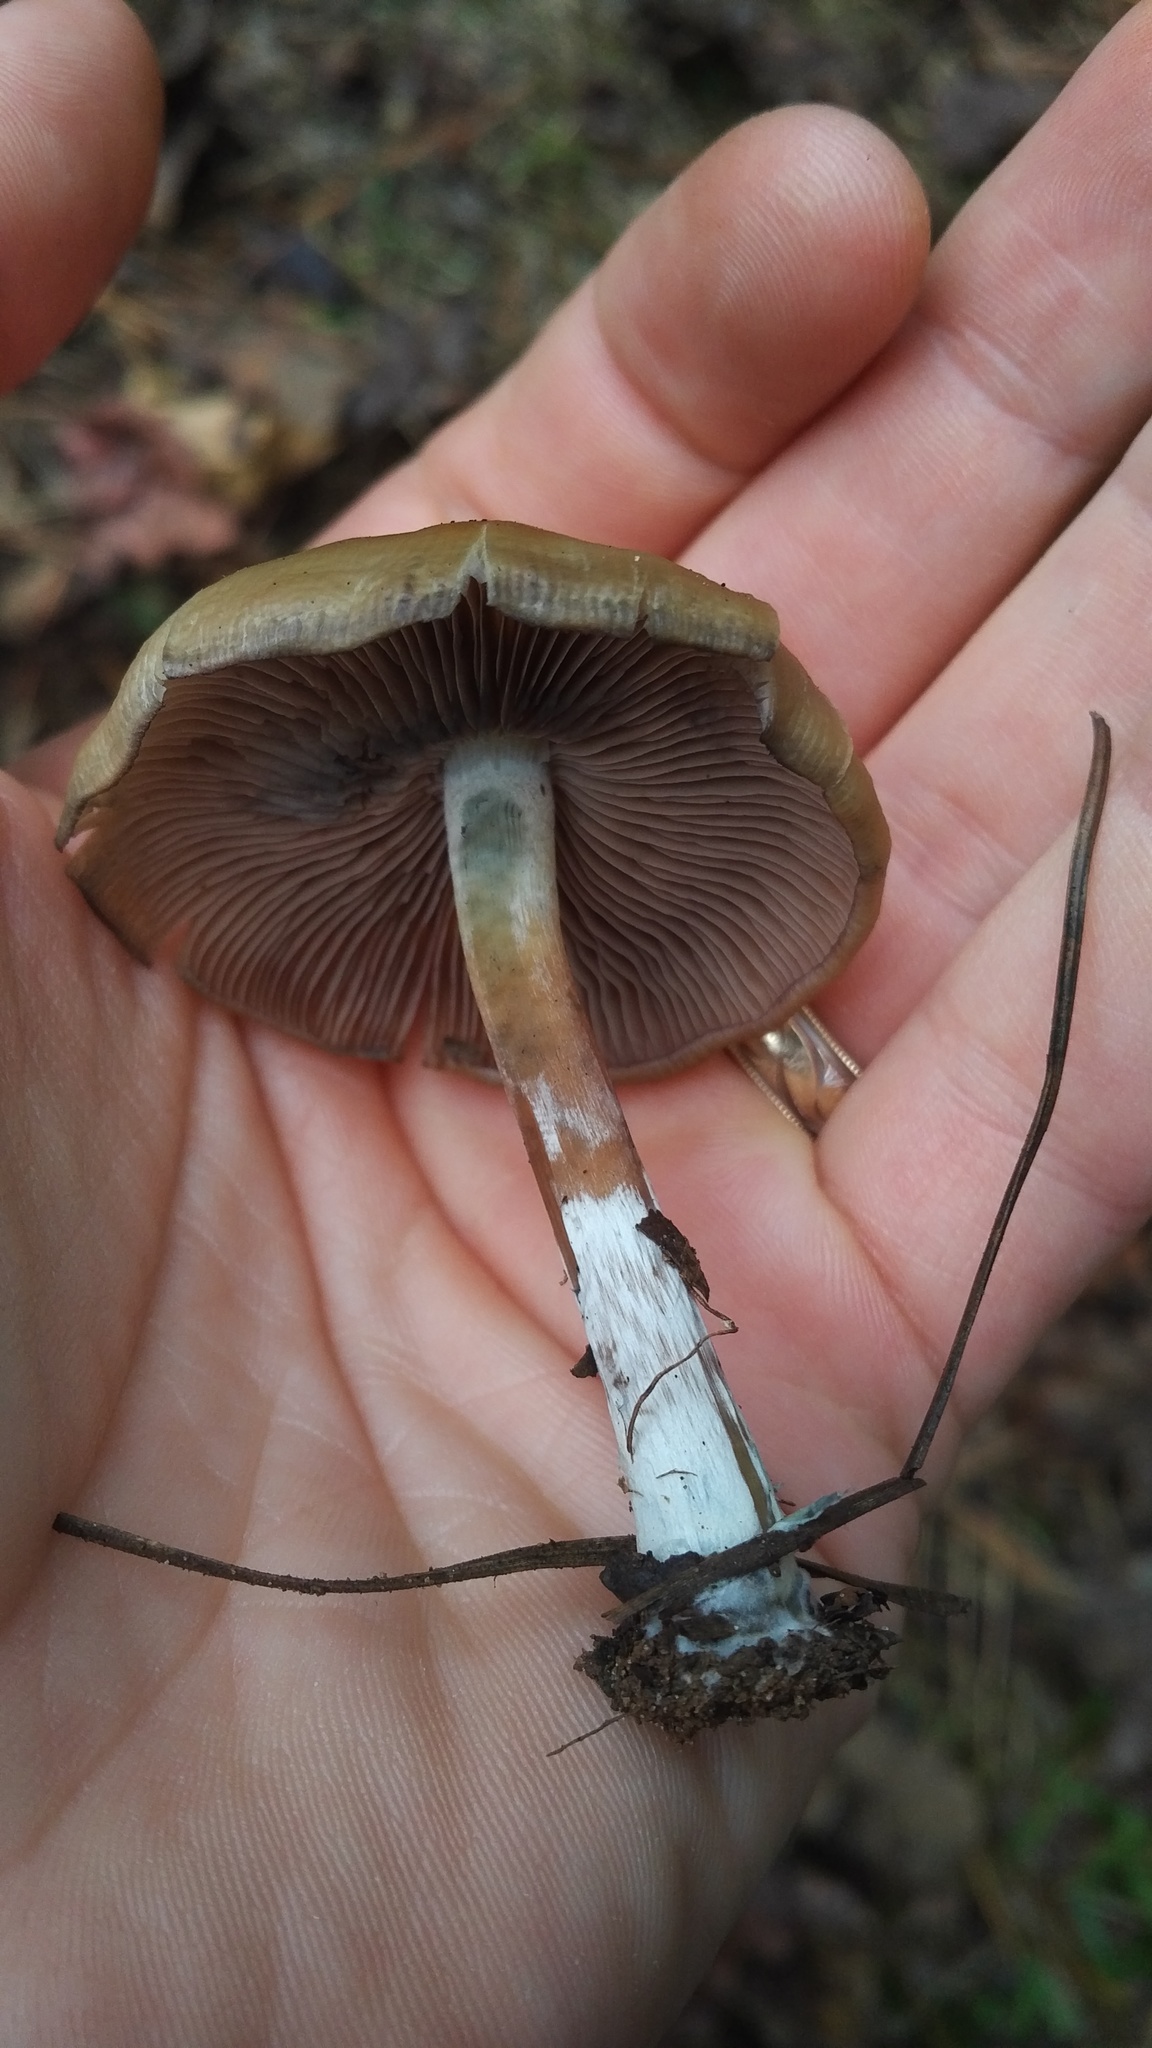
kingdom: Fungi
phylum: Basidiomycota
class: Agaricomycetes
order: Agaricales
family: Hymenogastraceae
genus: Psilocybe
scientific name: Psilocybe caerulescens
